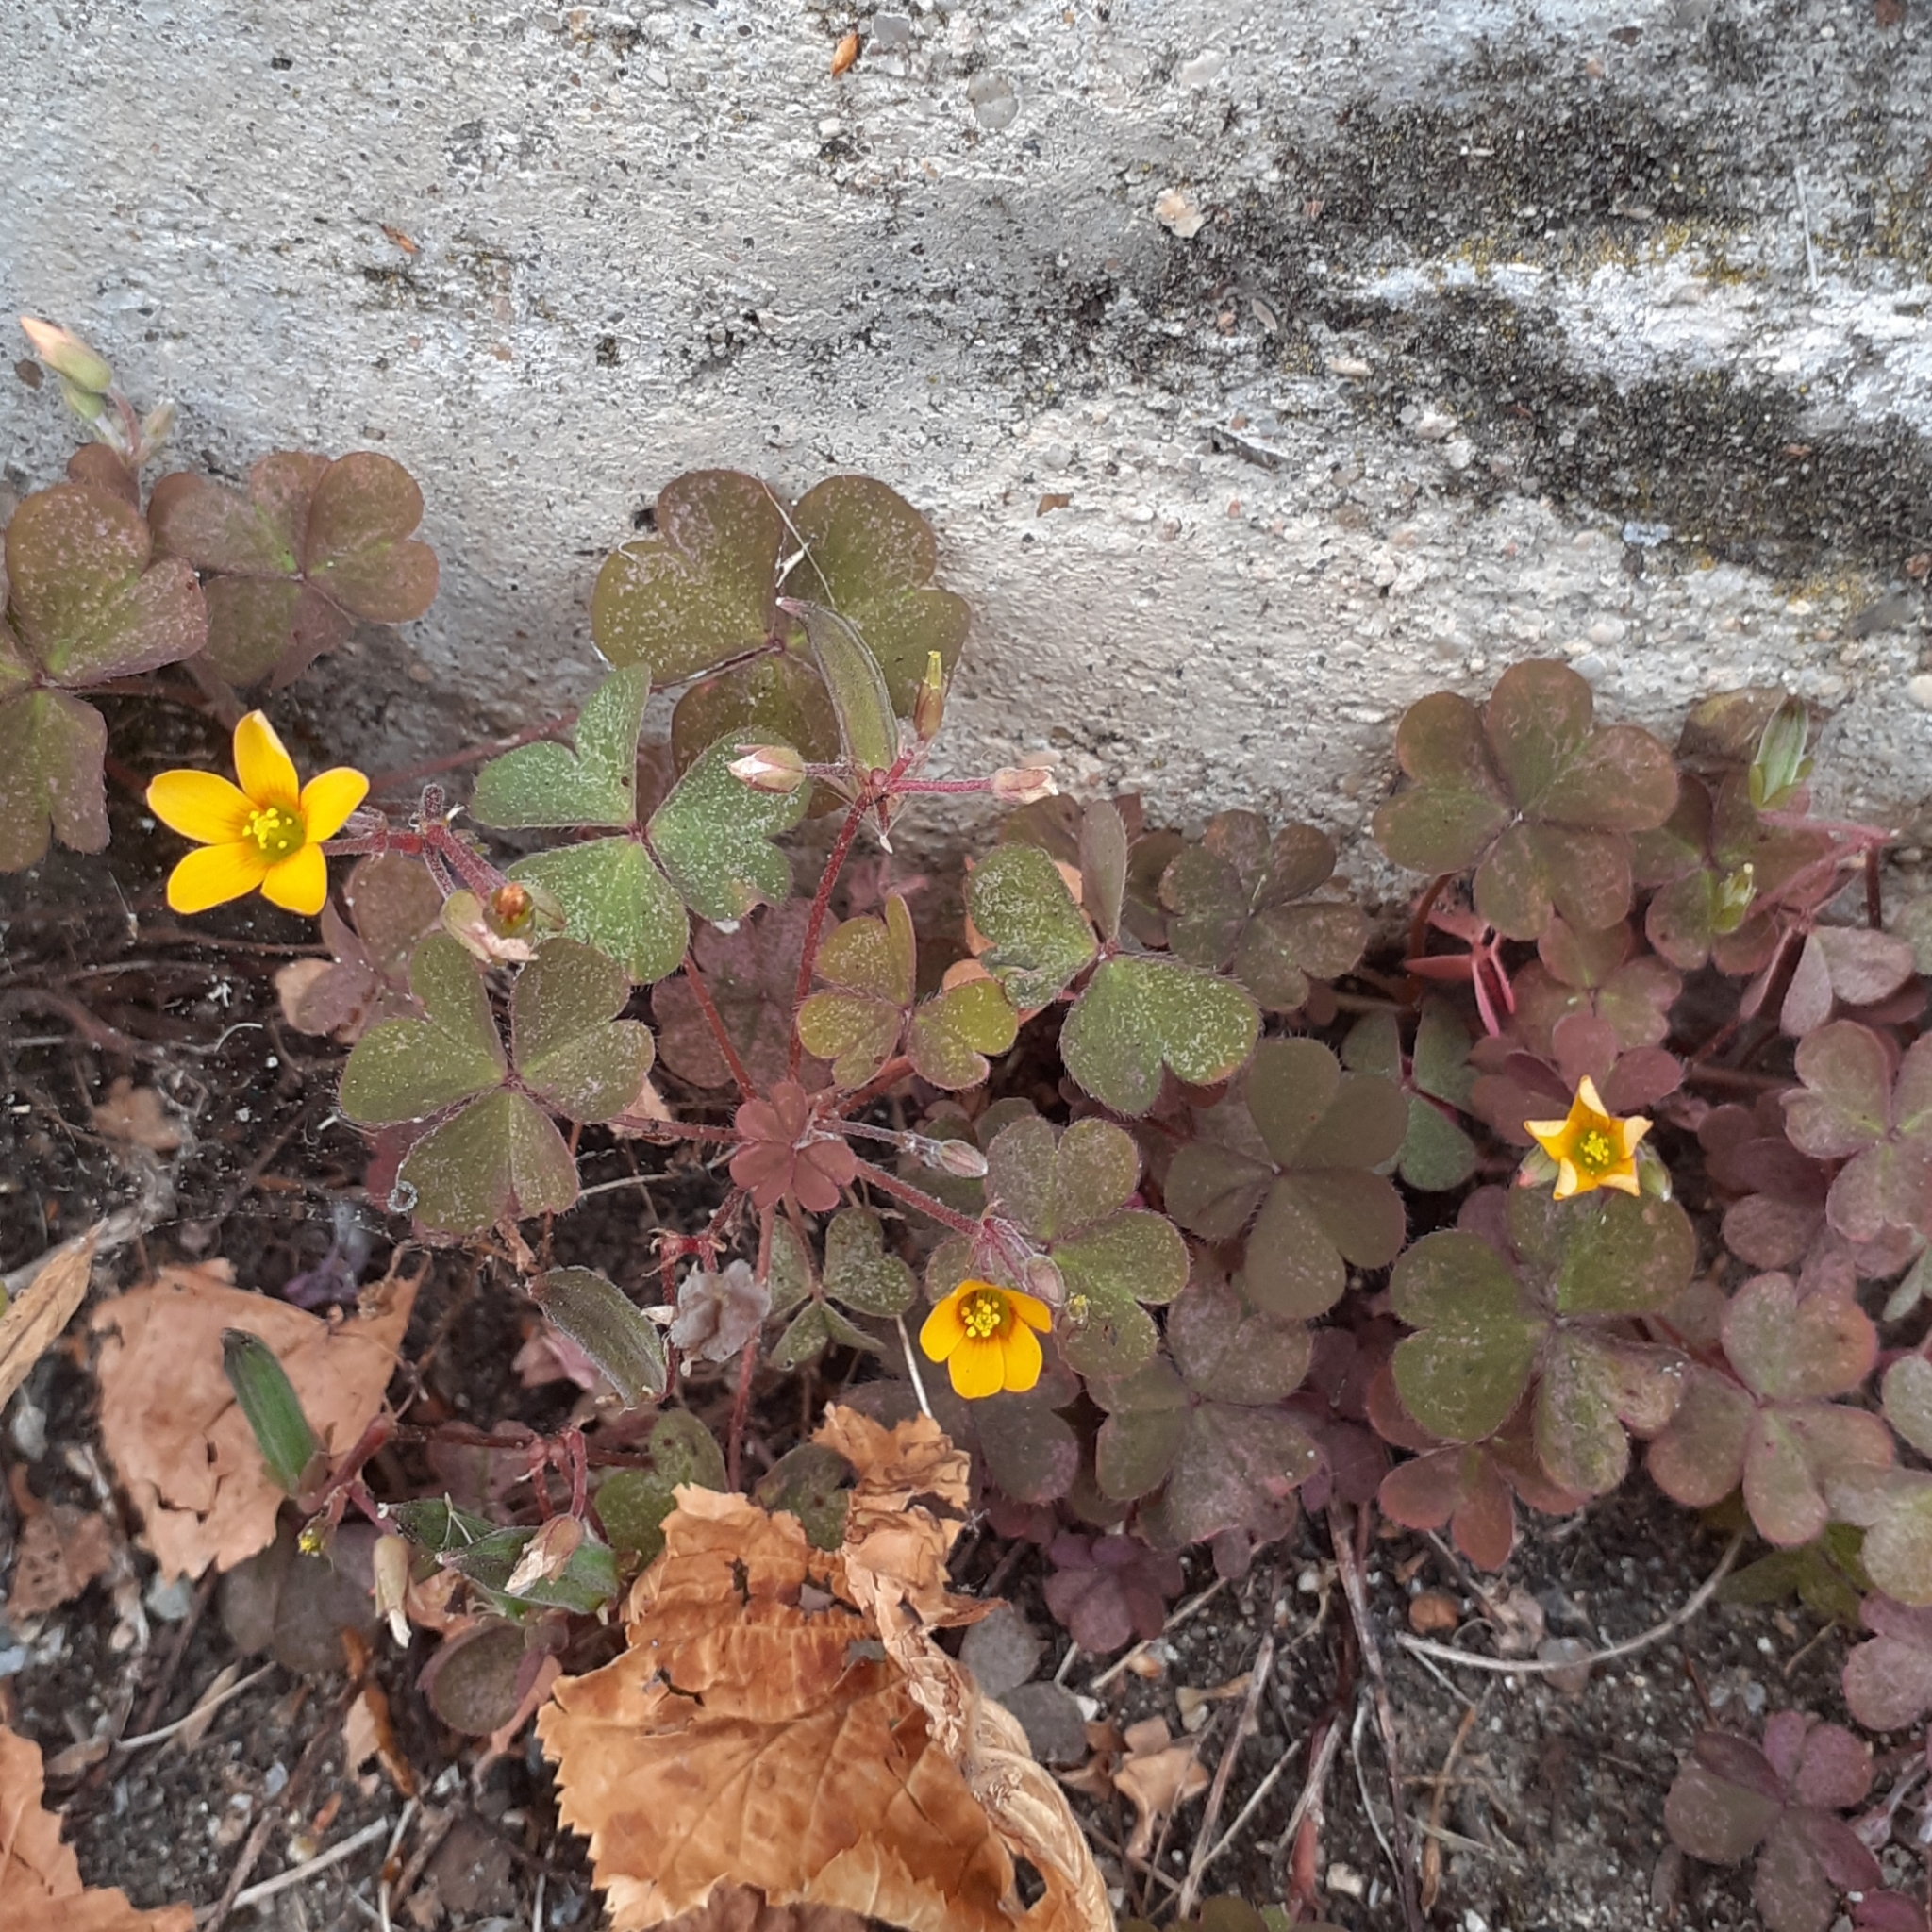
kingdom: Plantae
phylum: Tracheophyta
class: Magnoliopsida
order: Oxalidales
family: Oxalidaceae
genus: Oxalis
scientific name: Oxalis corniculata
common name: Procumbent yellow-sorrel
